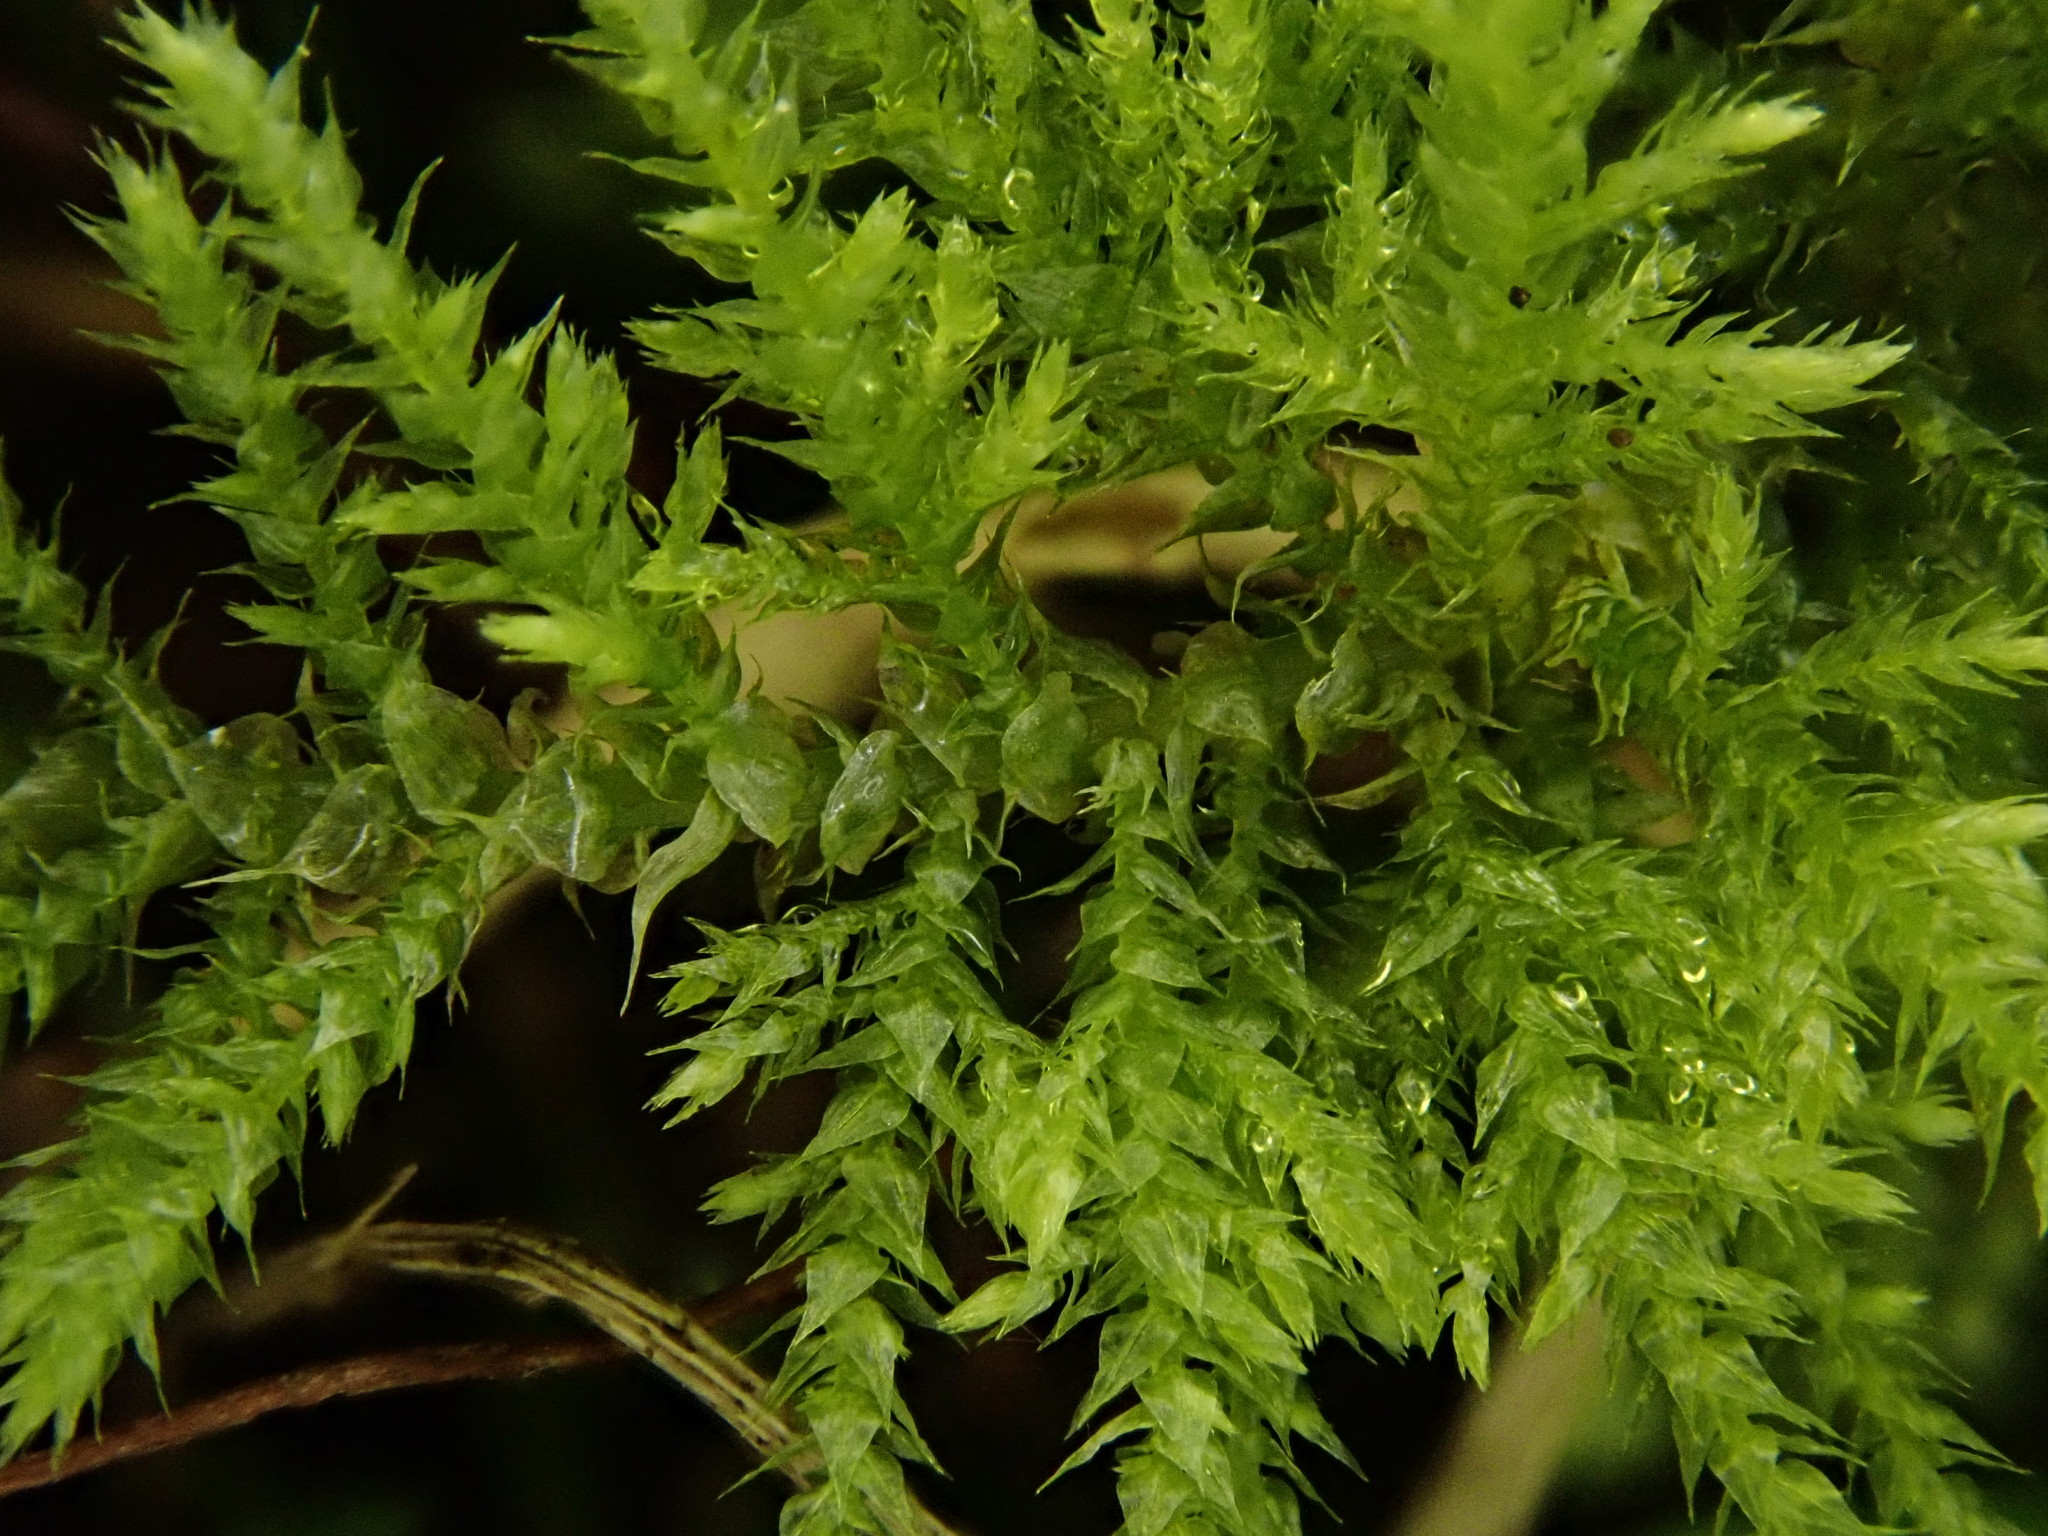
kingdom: Plantae
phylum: Bryophyta
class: Bryopsida
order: Hypnales
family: Brachytheciaceae
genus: Kindbergia
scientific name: Kindbergia praelonga
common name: Slender beaked moss
